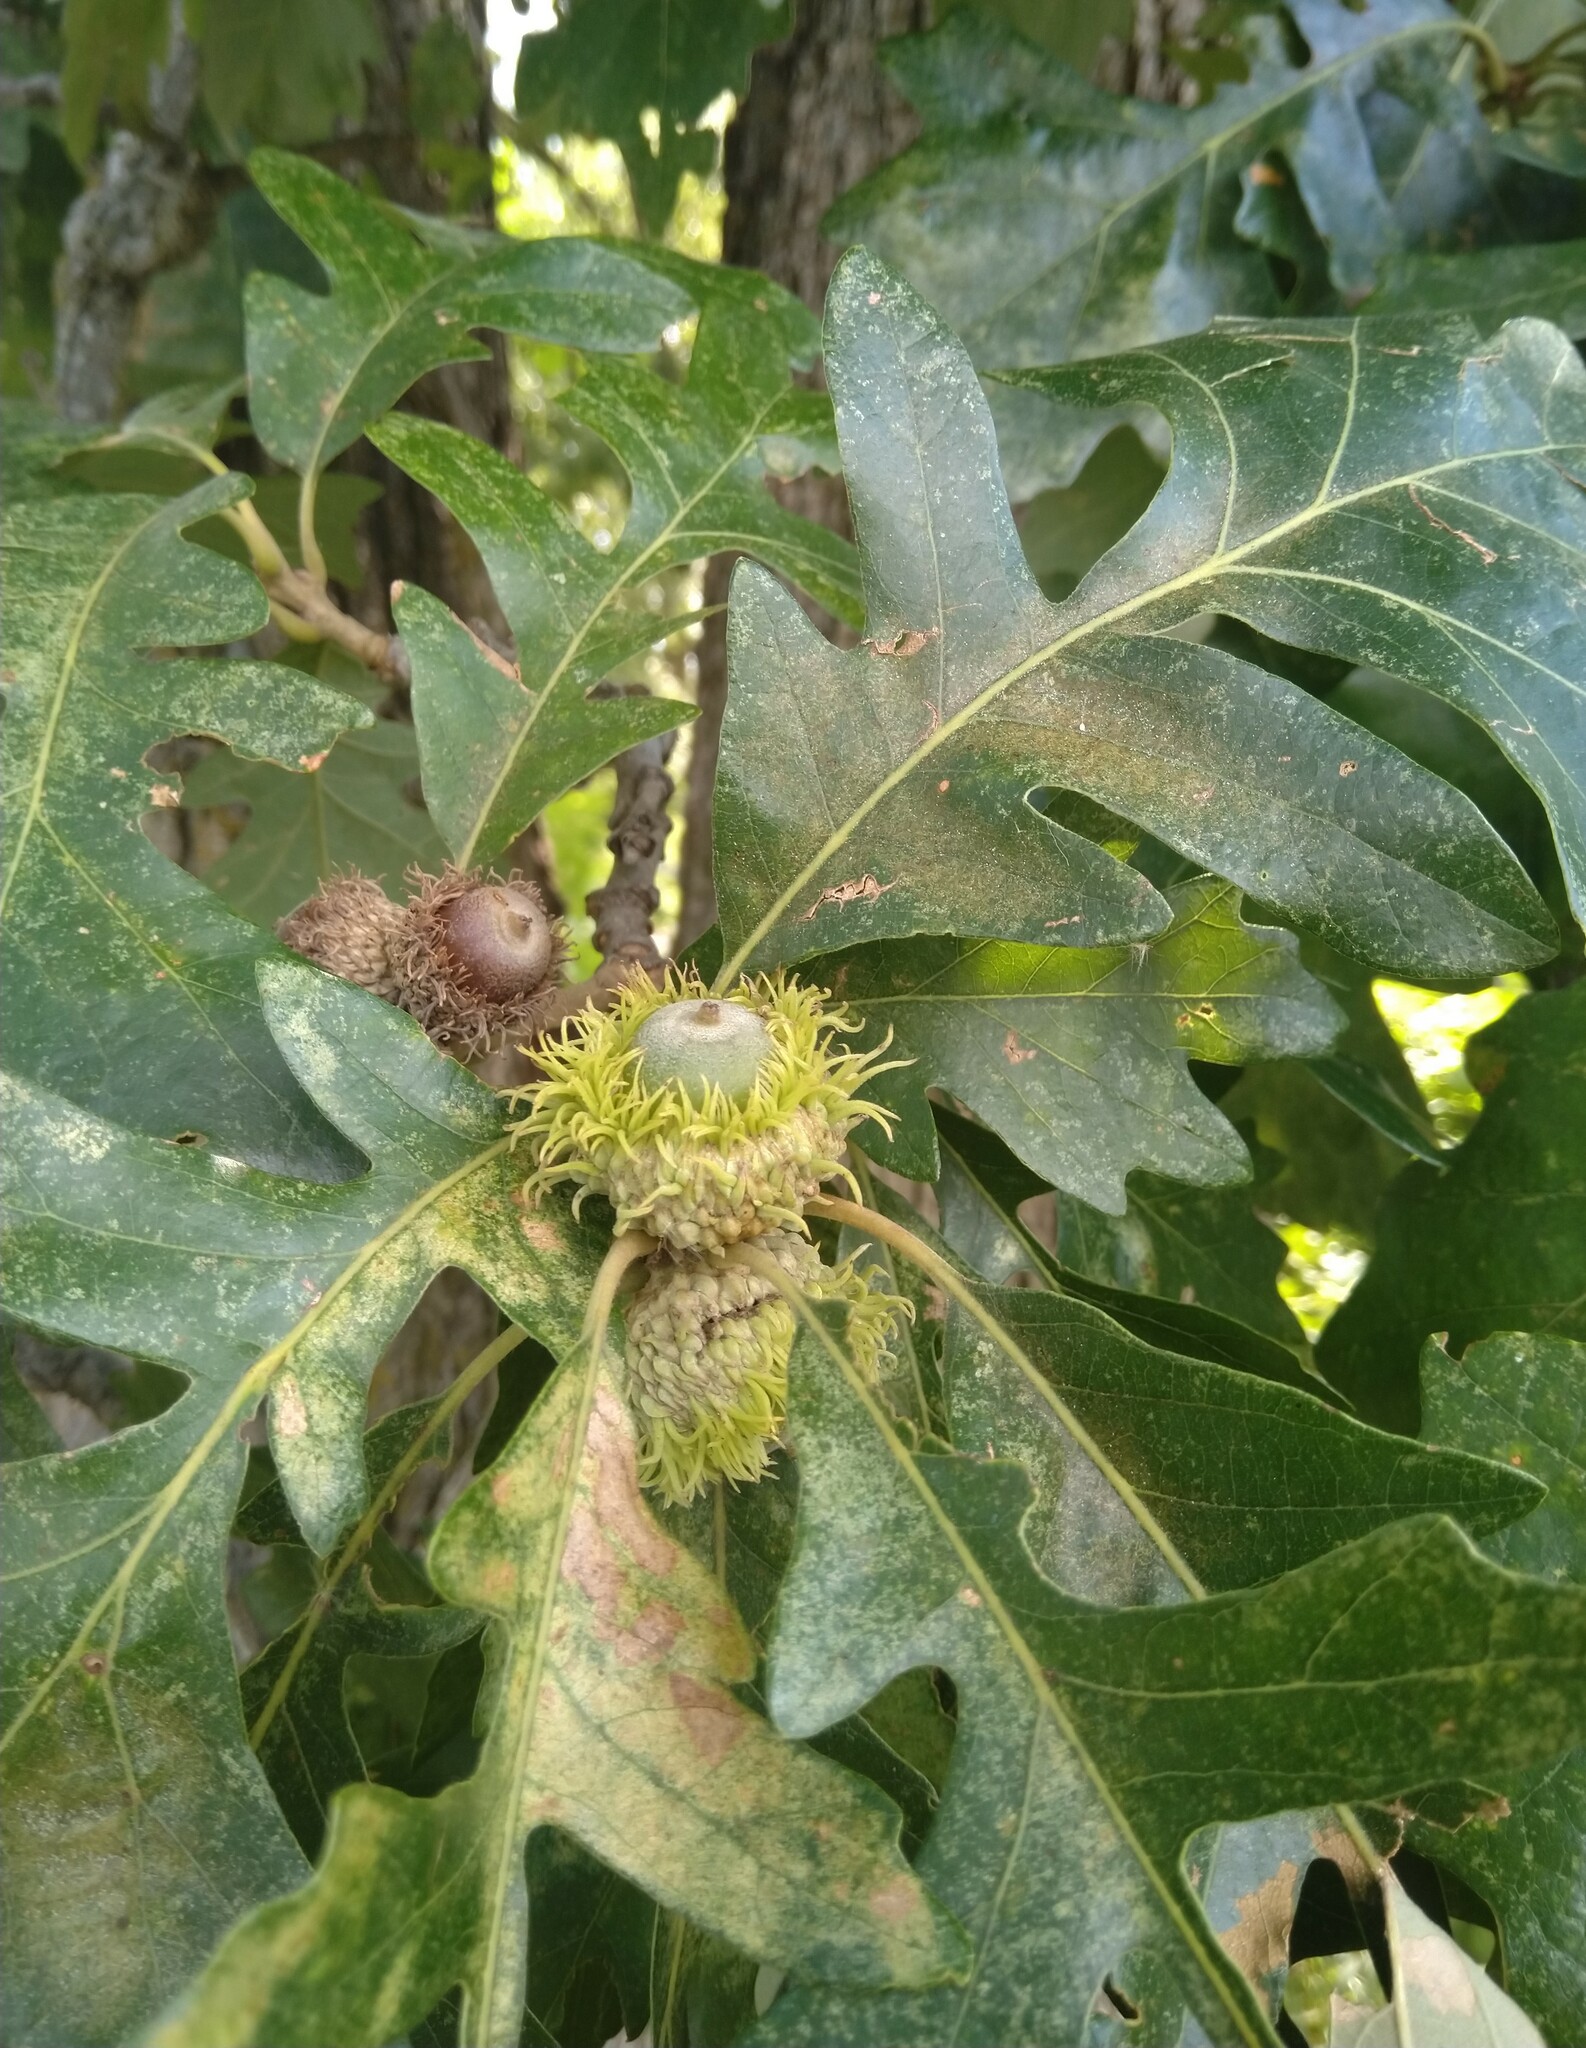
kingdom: Plantae
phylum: Tracheophyta
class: Magnoliopsida
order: Fagales
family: Fagaceae
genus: Quercus
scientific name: Quercus macrocarpa
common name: Bur oak
